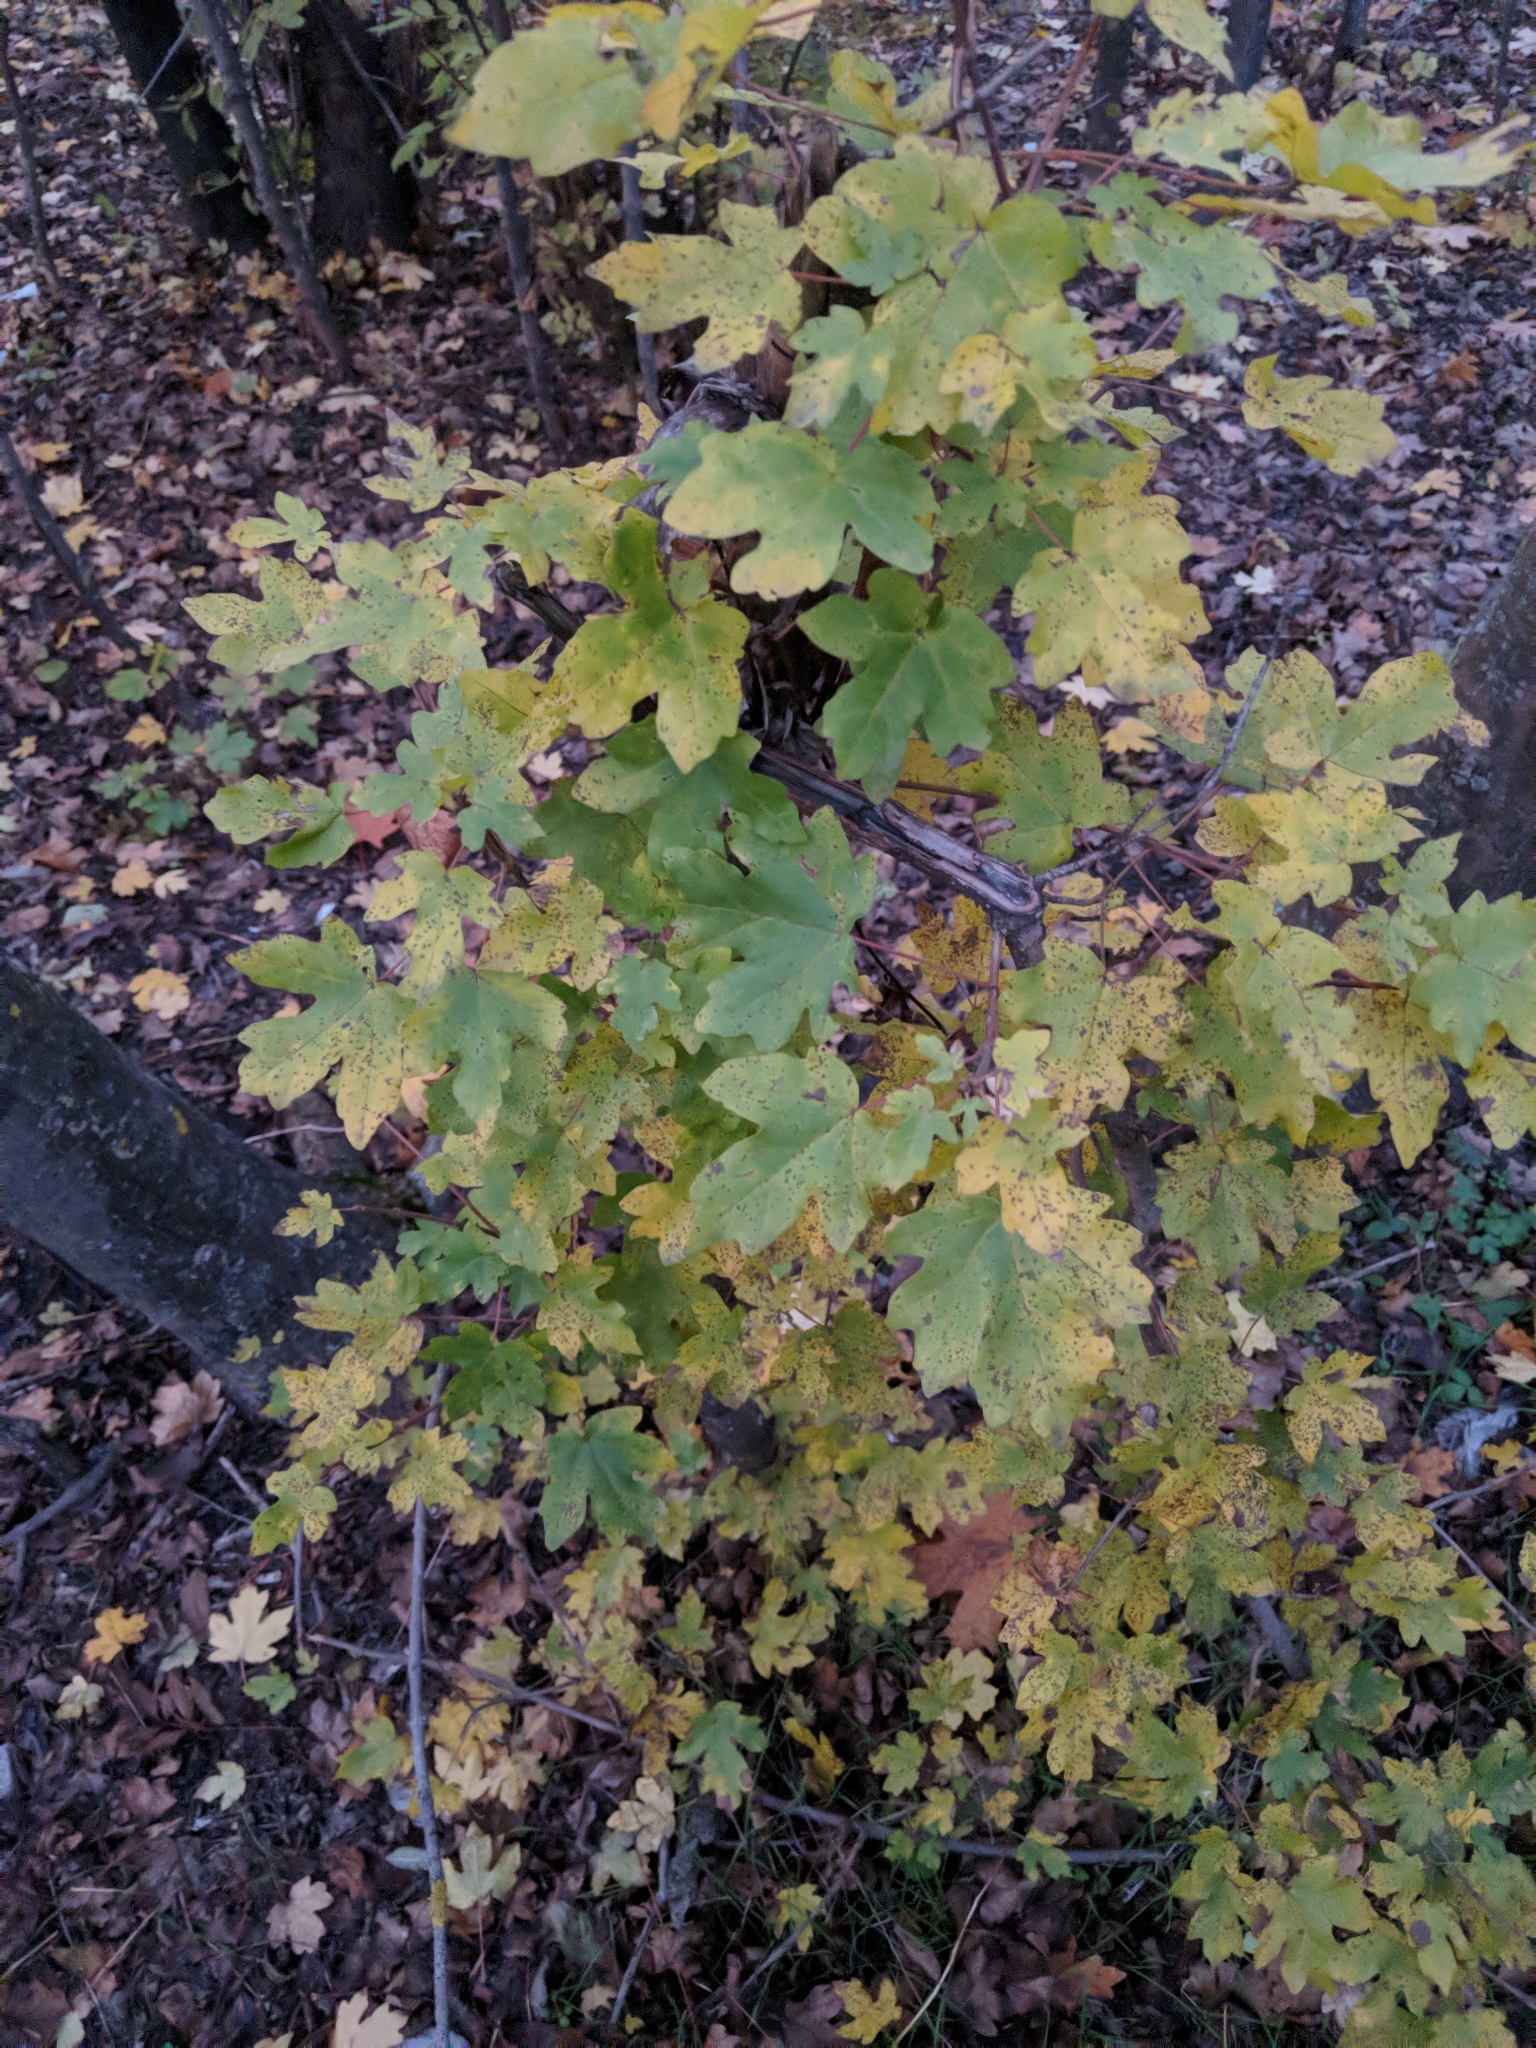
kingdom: Plantae
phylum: Tracheophyta
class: Magnoliopsida
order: Sapindales
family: Sapindaceae
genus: Acer
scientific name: Acer campestre
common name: Field maple
